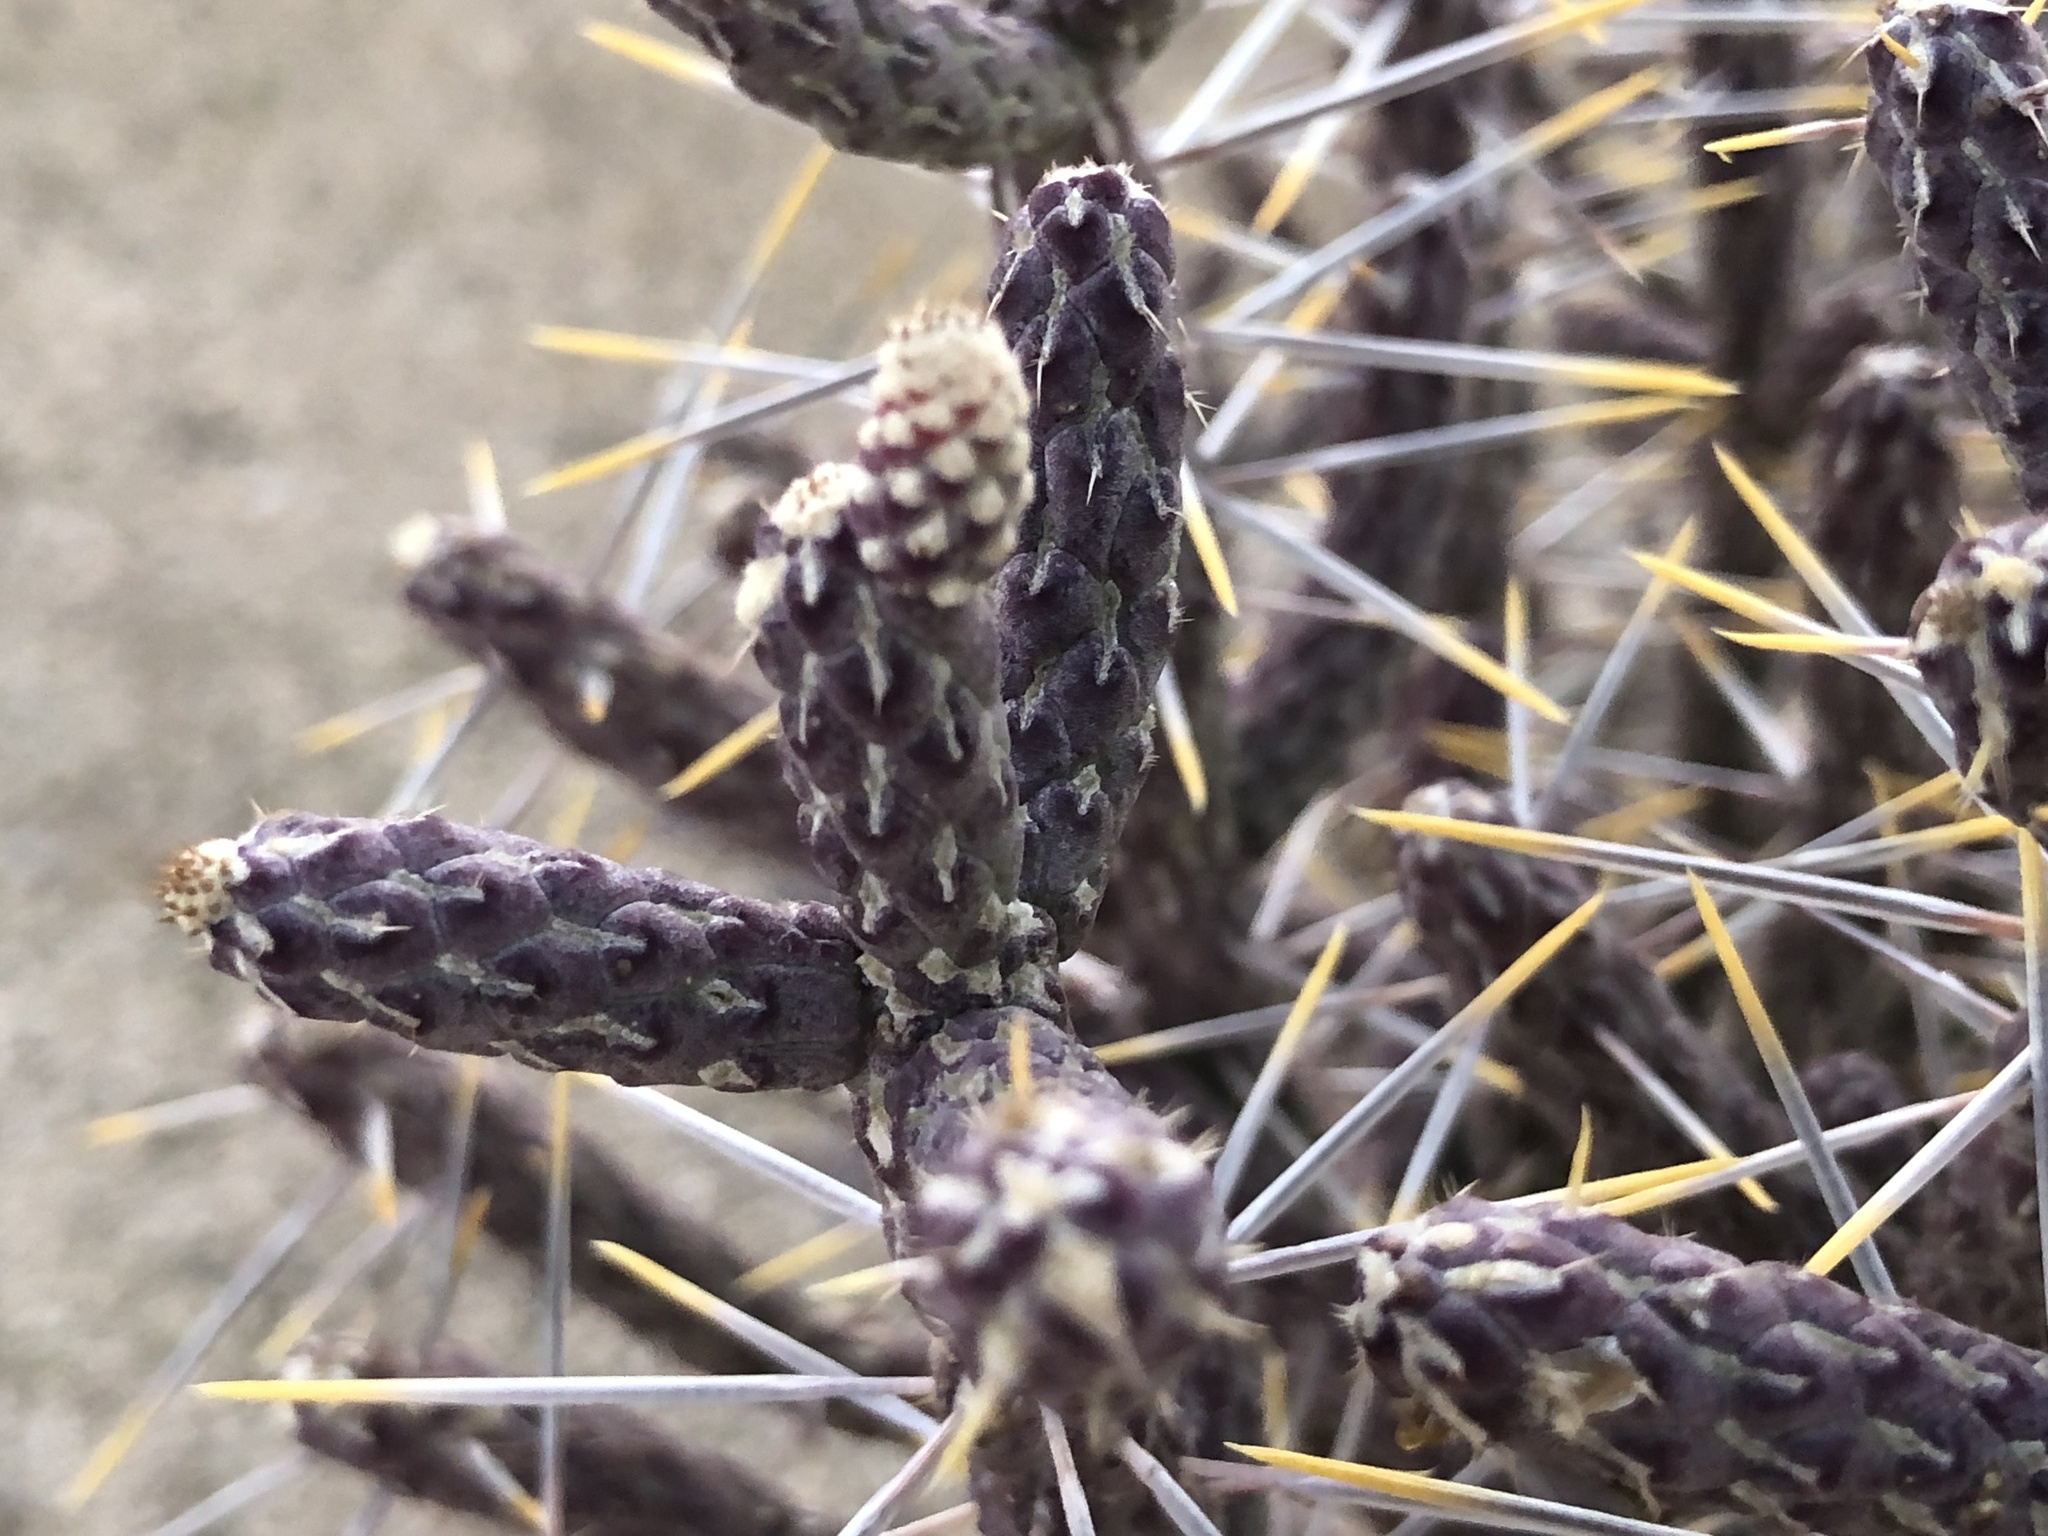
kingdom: Plantae
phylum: Tracheophyta
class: Magnoliopsida
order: Caryophyllales
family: Cactaceae
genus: Cylindropuntia
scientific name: Cylindropuntia ramosissima
